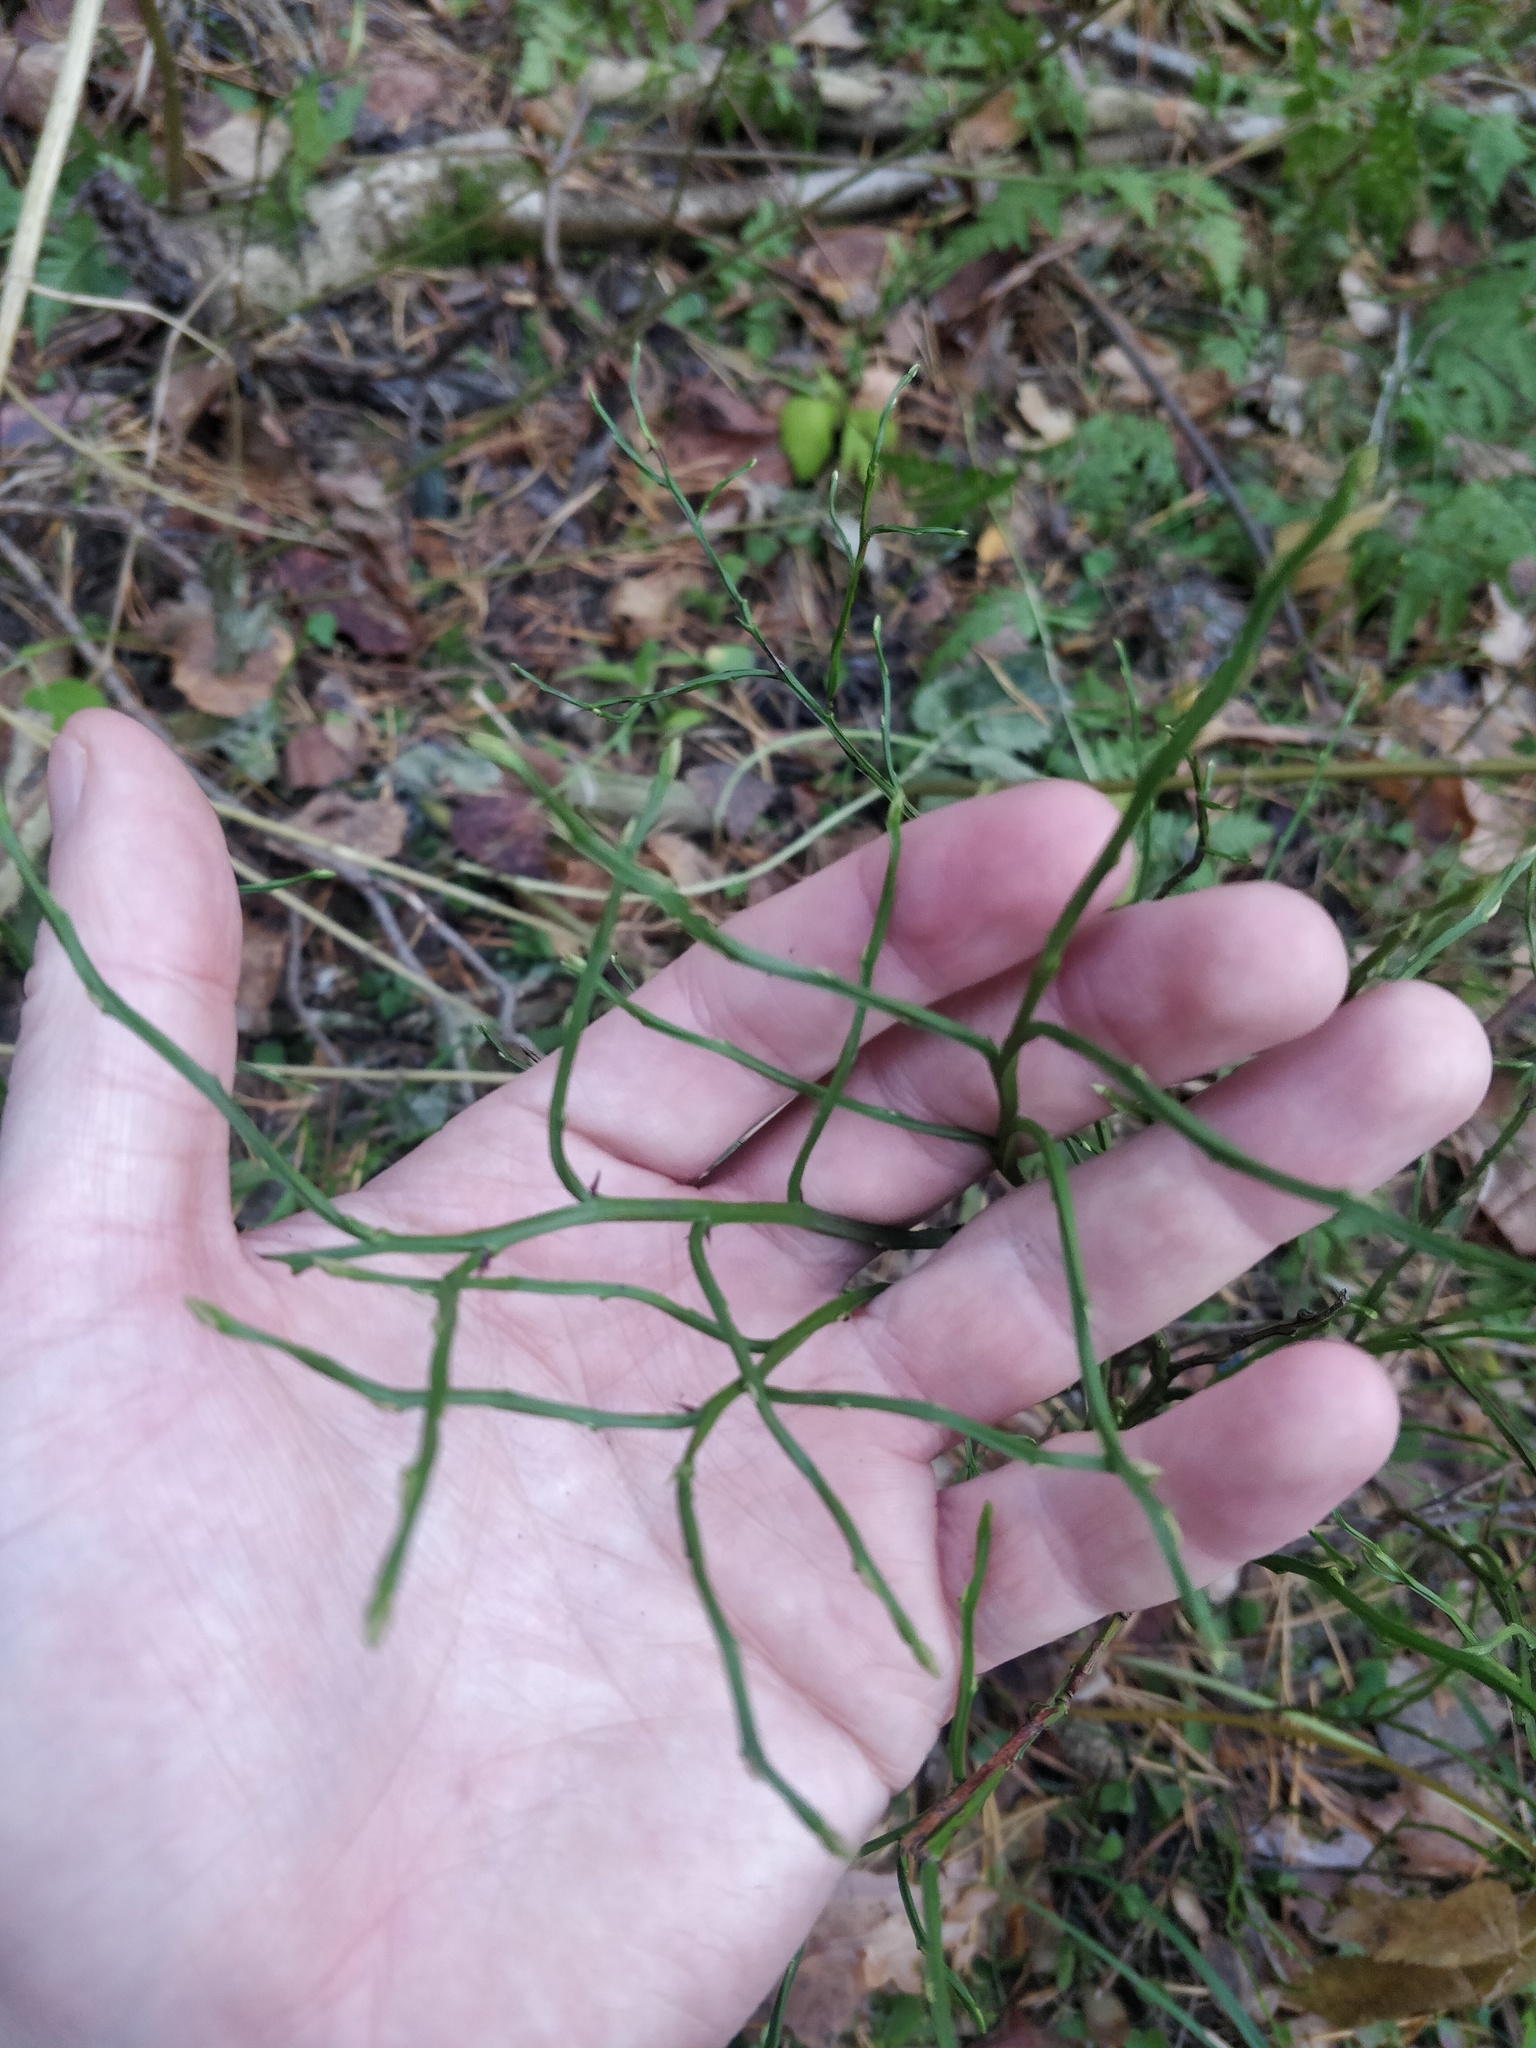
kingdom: Plantae
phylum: Tracheophyta
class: Magnoliopsida
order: Ericales
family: Ericaceae
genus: Vaccinium
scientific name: Vaccinium myrtillus
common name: Bilberry
